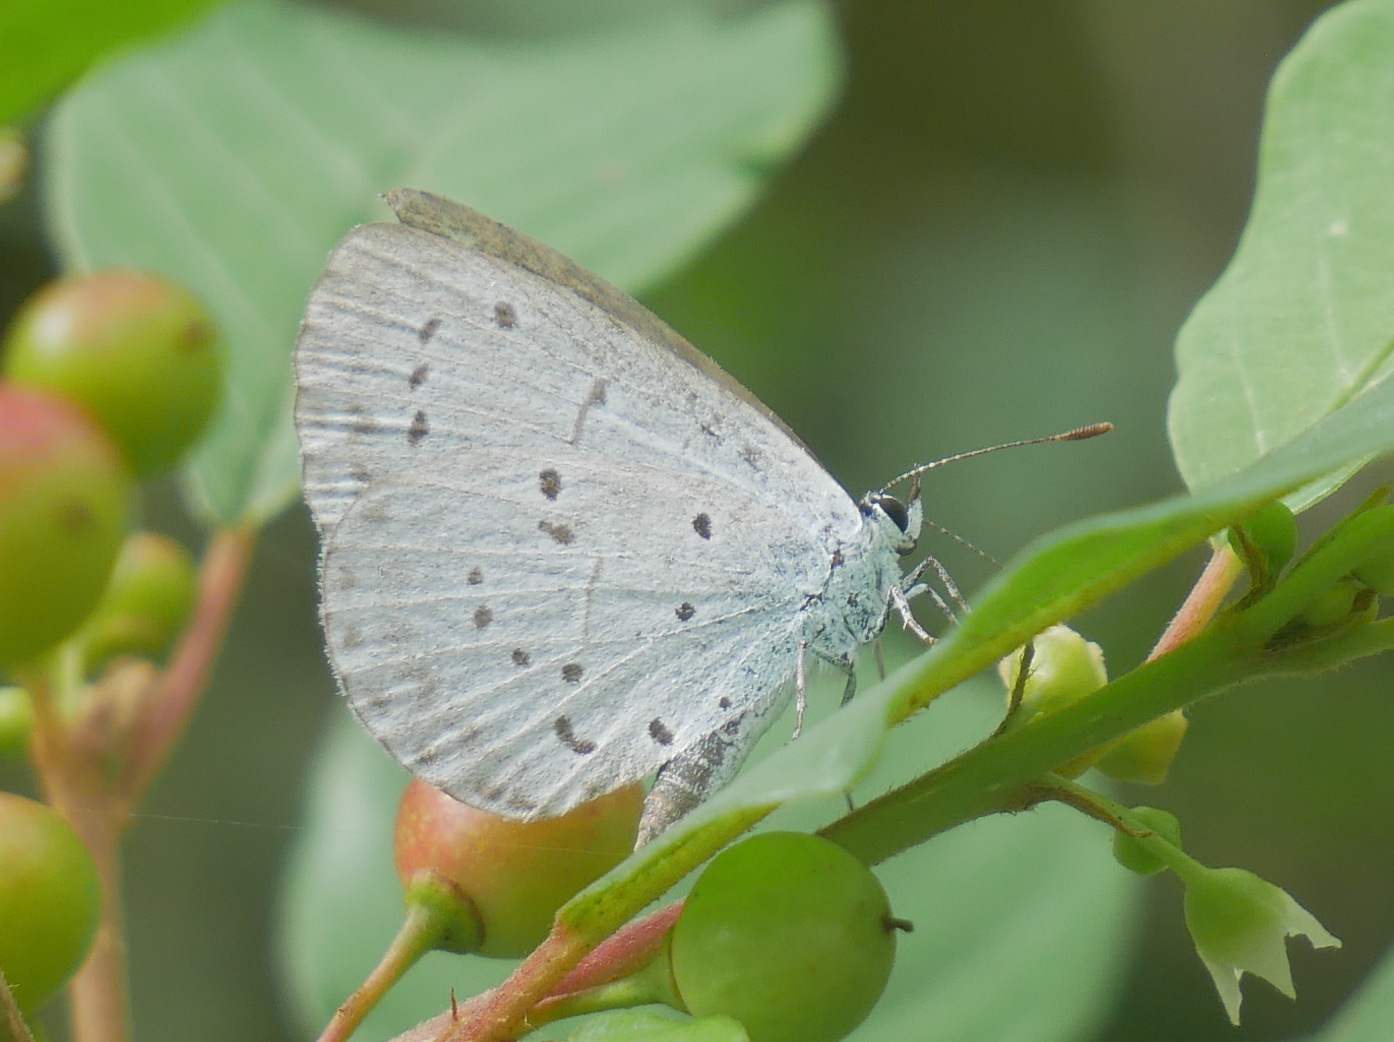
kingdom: Animalia
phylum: Arthropoda
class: Insecta
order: Lepidoptera
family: Lycaenidae
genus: Celastrina
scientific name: Celastrina argiolus
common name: Holly blue
